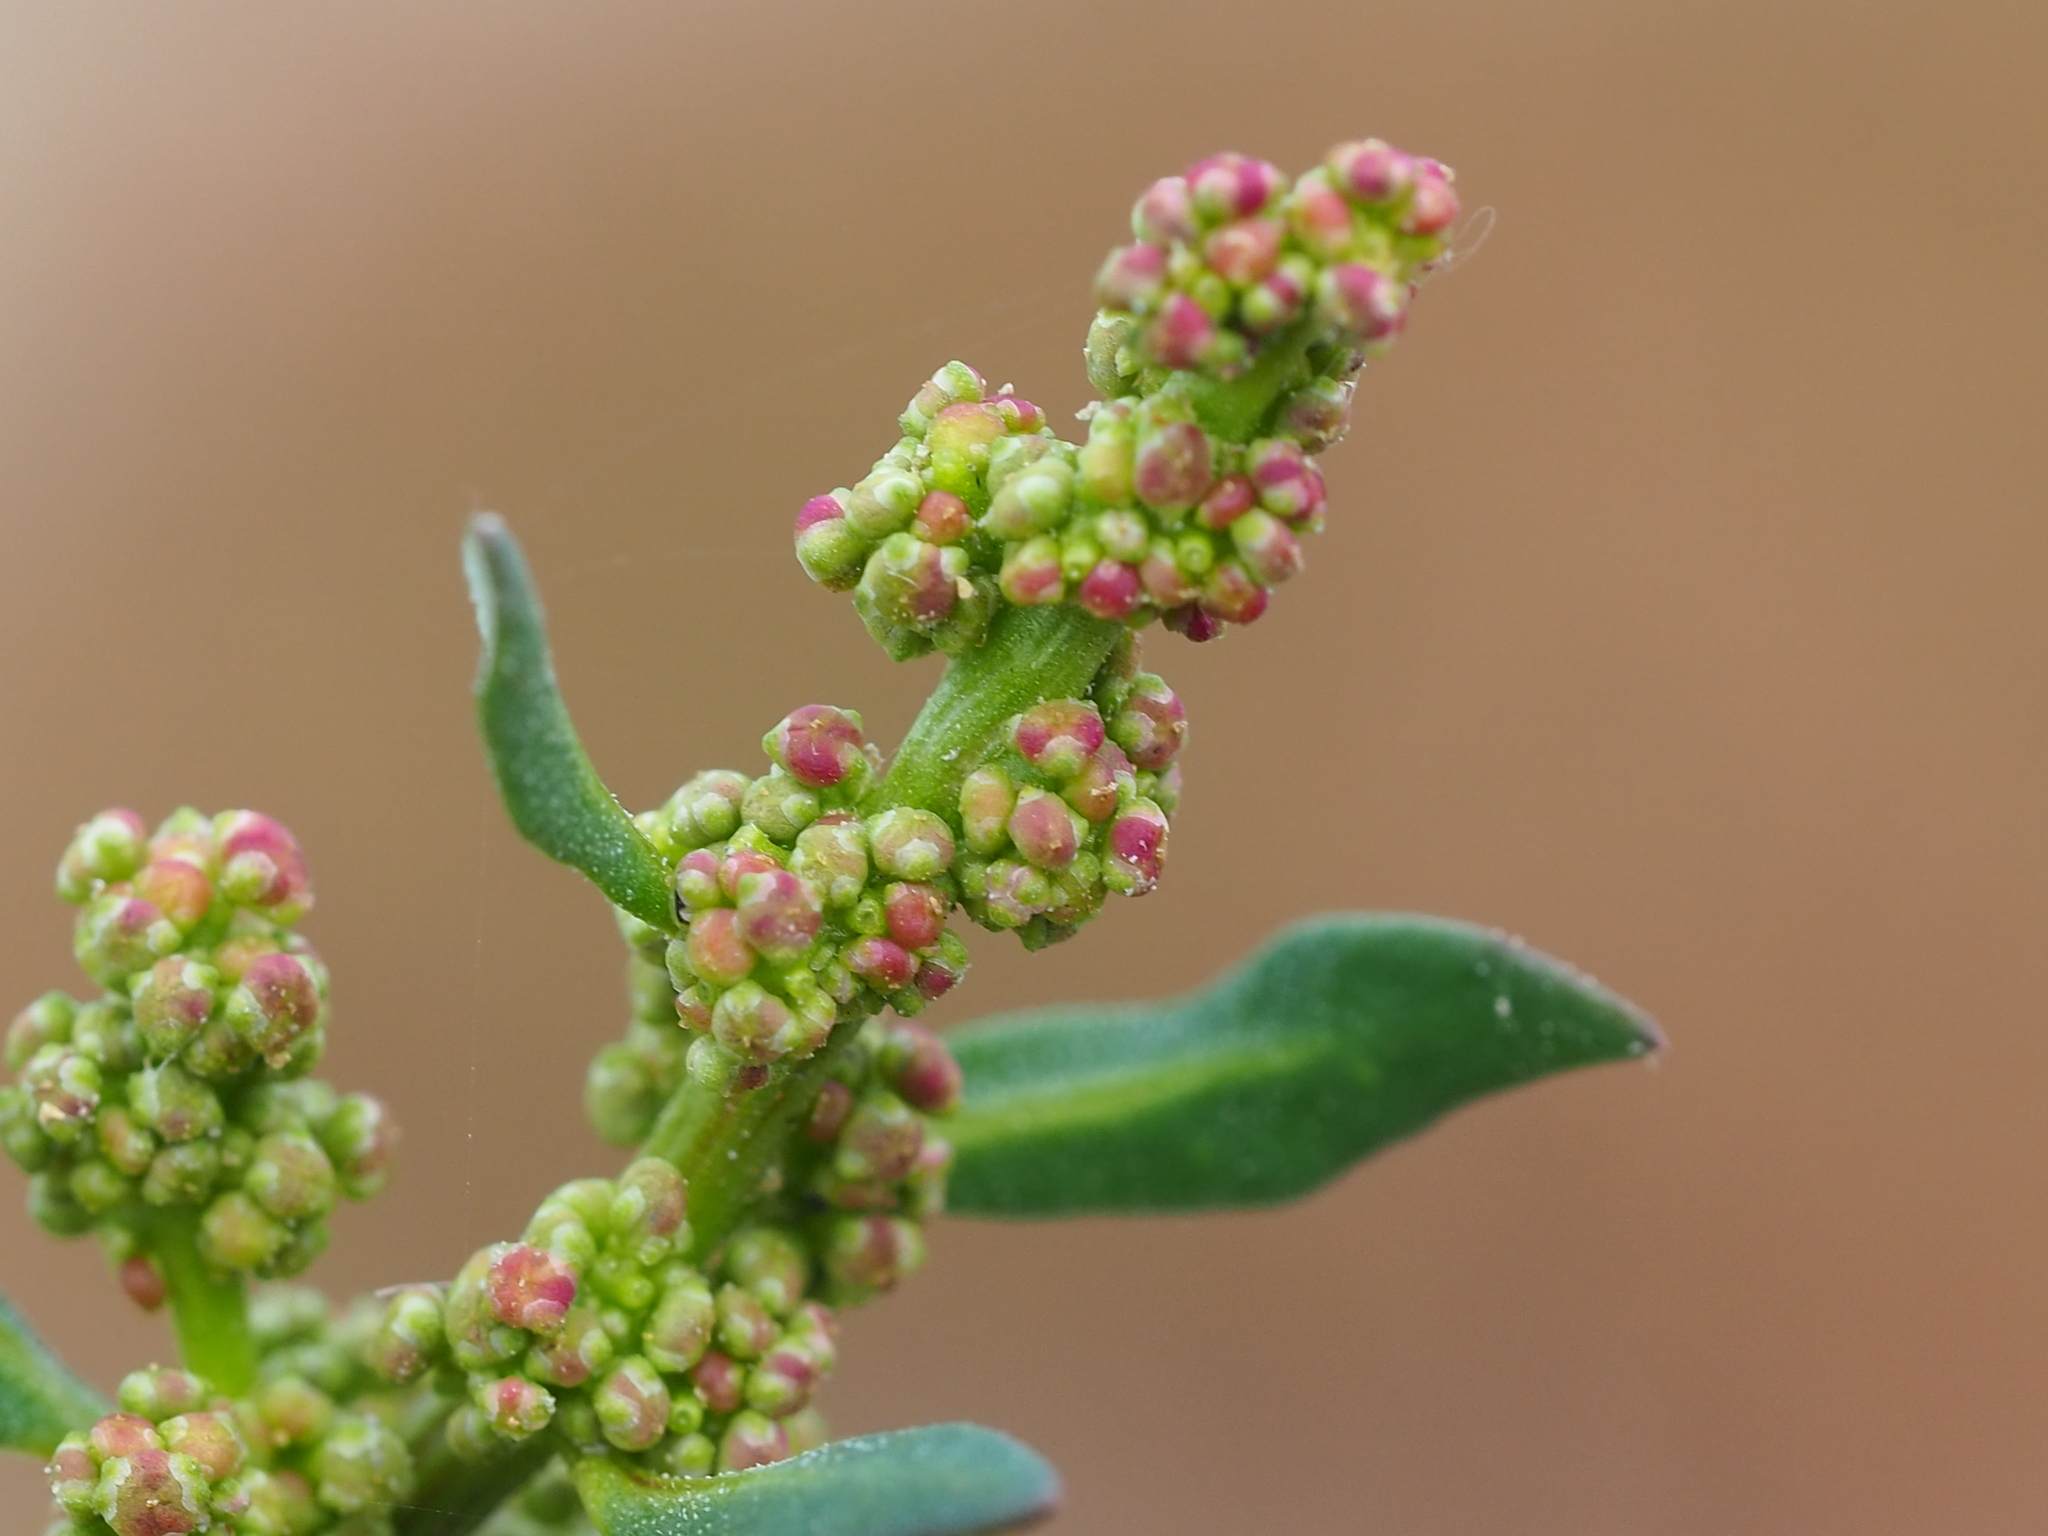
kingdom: Plantae
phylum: Tracheophyta
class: Magnoliopsida
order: Caryophyllales
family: Amaranthaceae
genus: Oxybasis
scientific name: Oxybasis glauca
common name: Glaucous goosefoot
